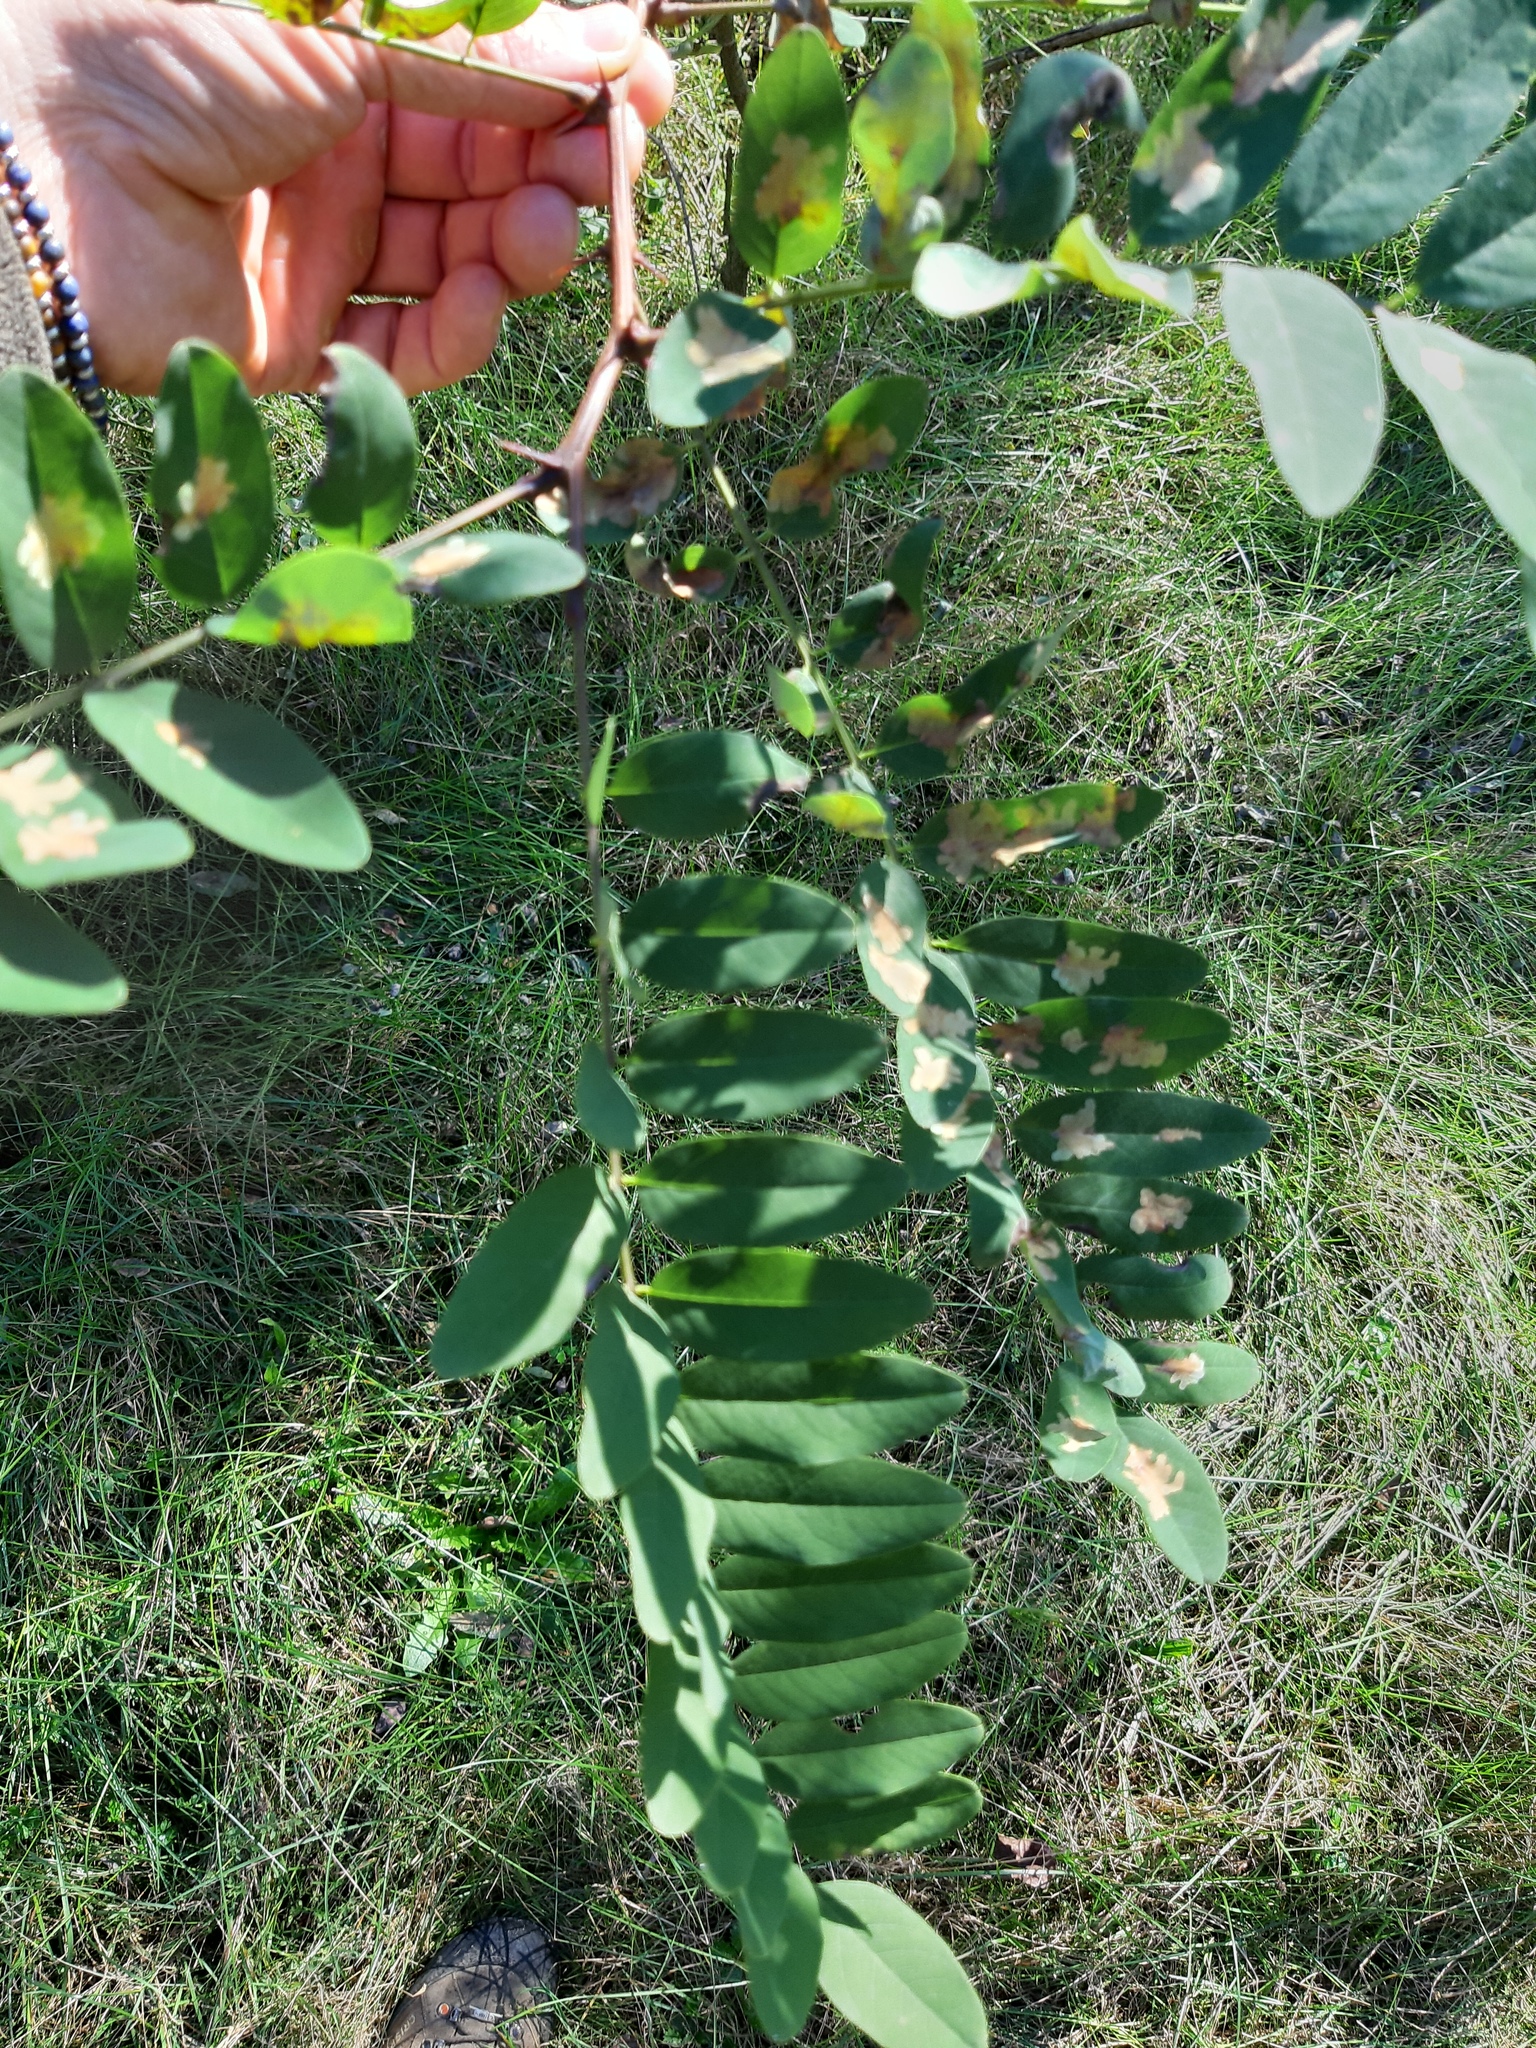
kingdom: Plantae
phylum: Tracheophyta
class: Magnoliopsida
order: Fabales
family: Fabaceae
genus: Robinia
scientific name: Robinia pseudoacacia
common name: Black locust
